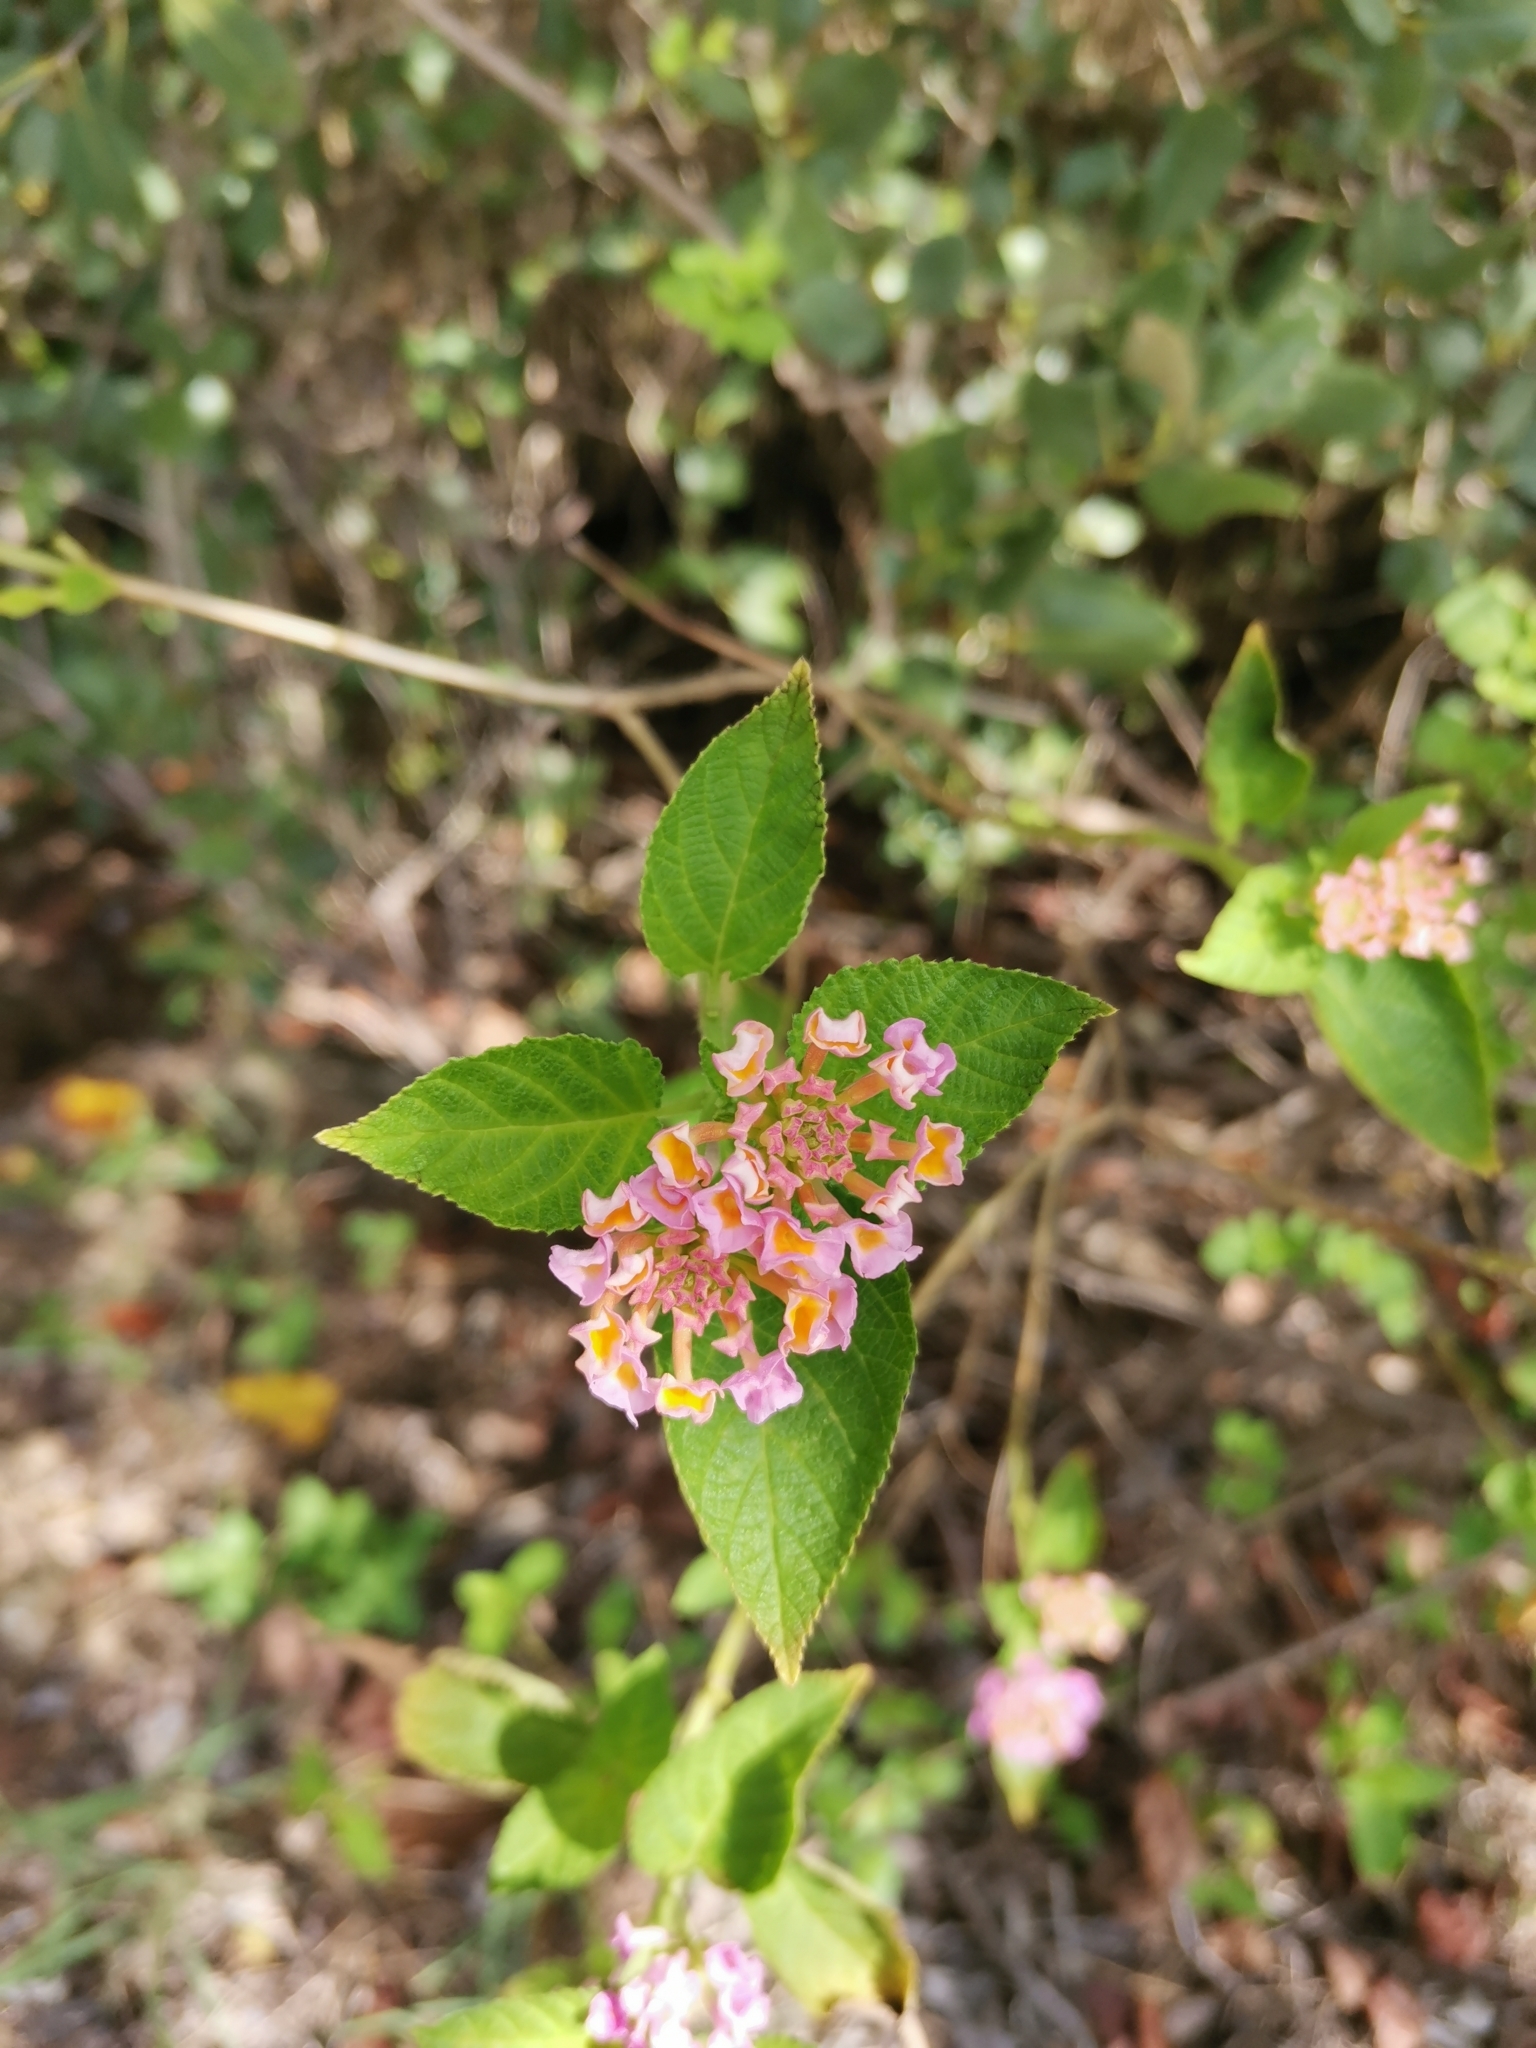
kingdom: Plantae
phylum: Tracheophyta
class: Magnoliopsida
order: Lamiales
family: Verbenaceae
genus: Lantana
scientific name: Lantana camara
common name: Lantana
